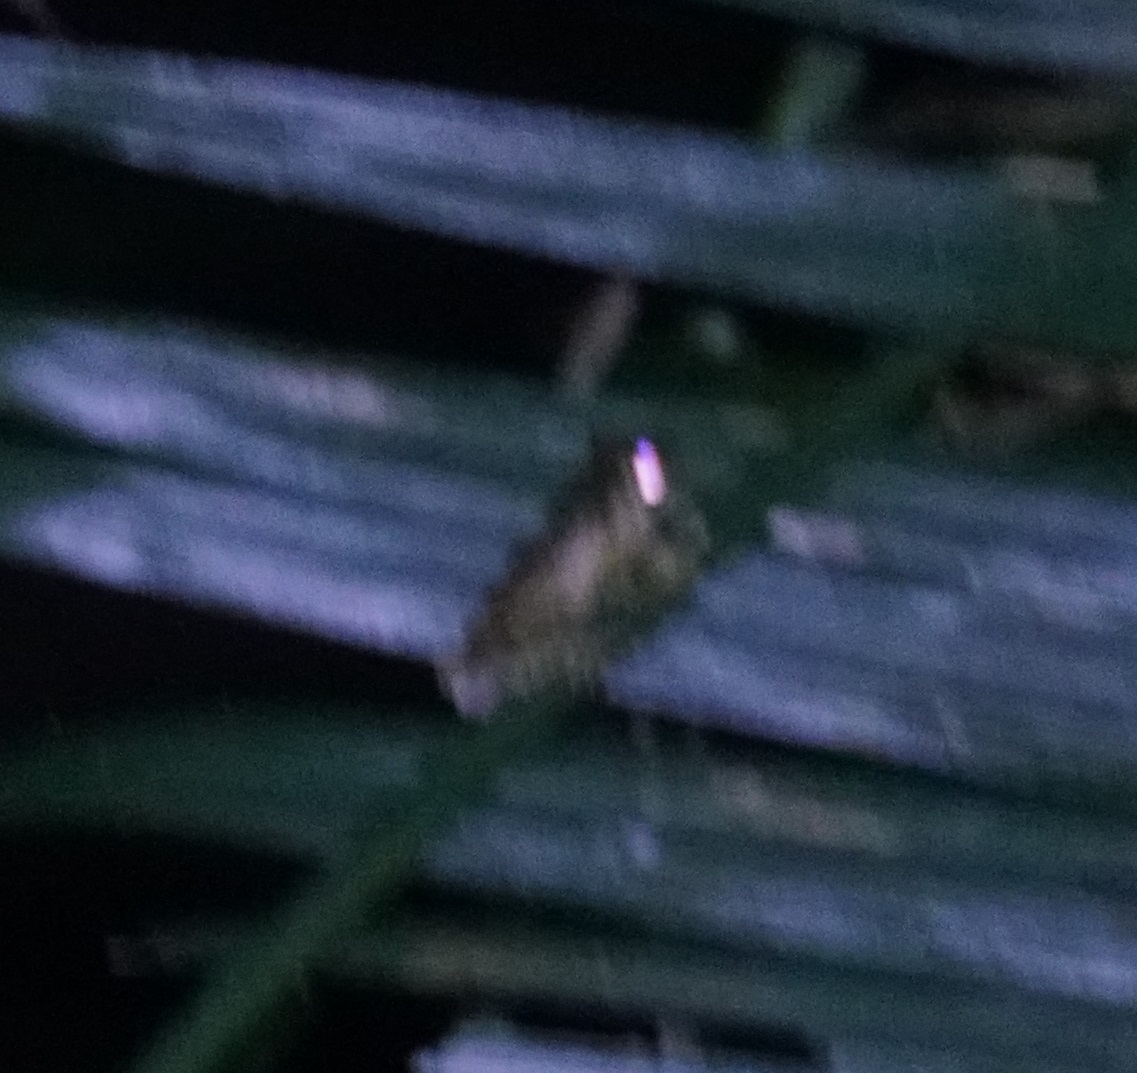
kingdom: Animalia
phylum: Chordata
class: Amphibia
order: Anura
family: Pelodryadidae
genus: Ranoidea
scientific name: Ranoidea serrata
